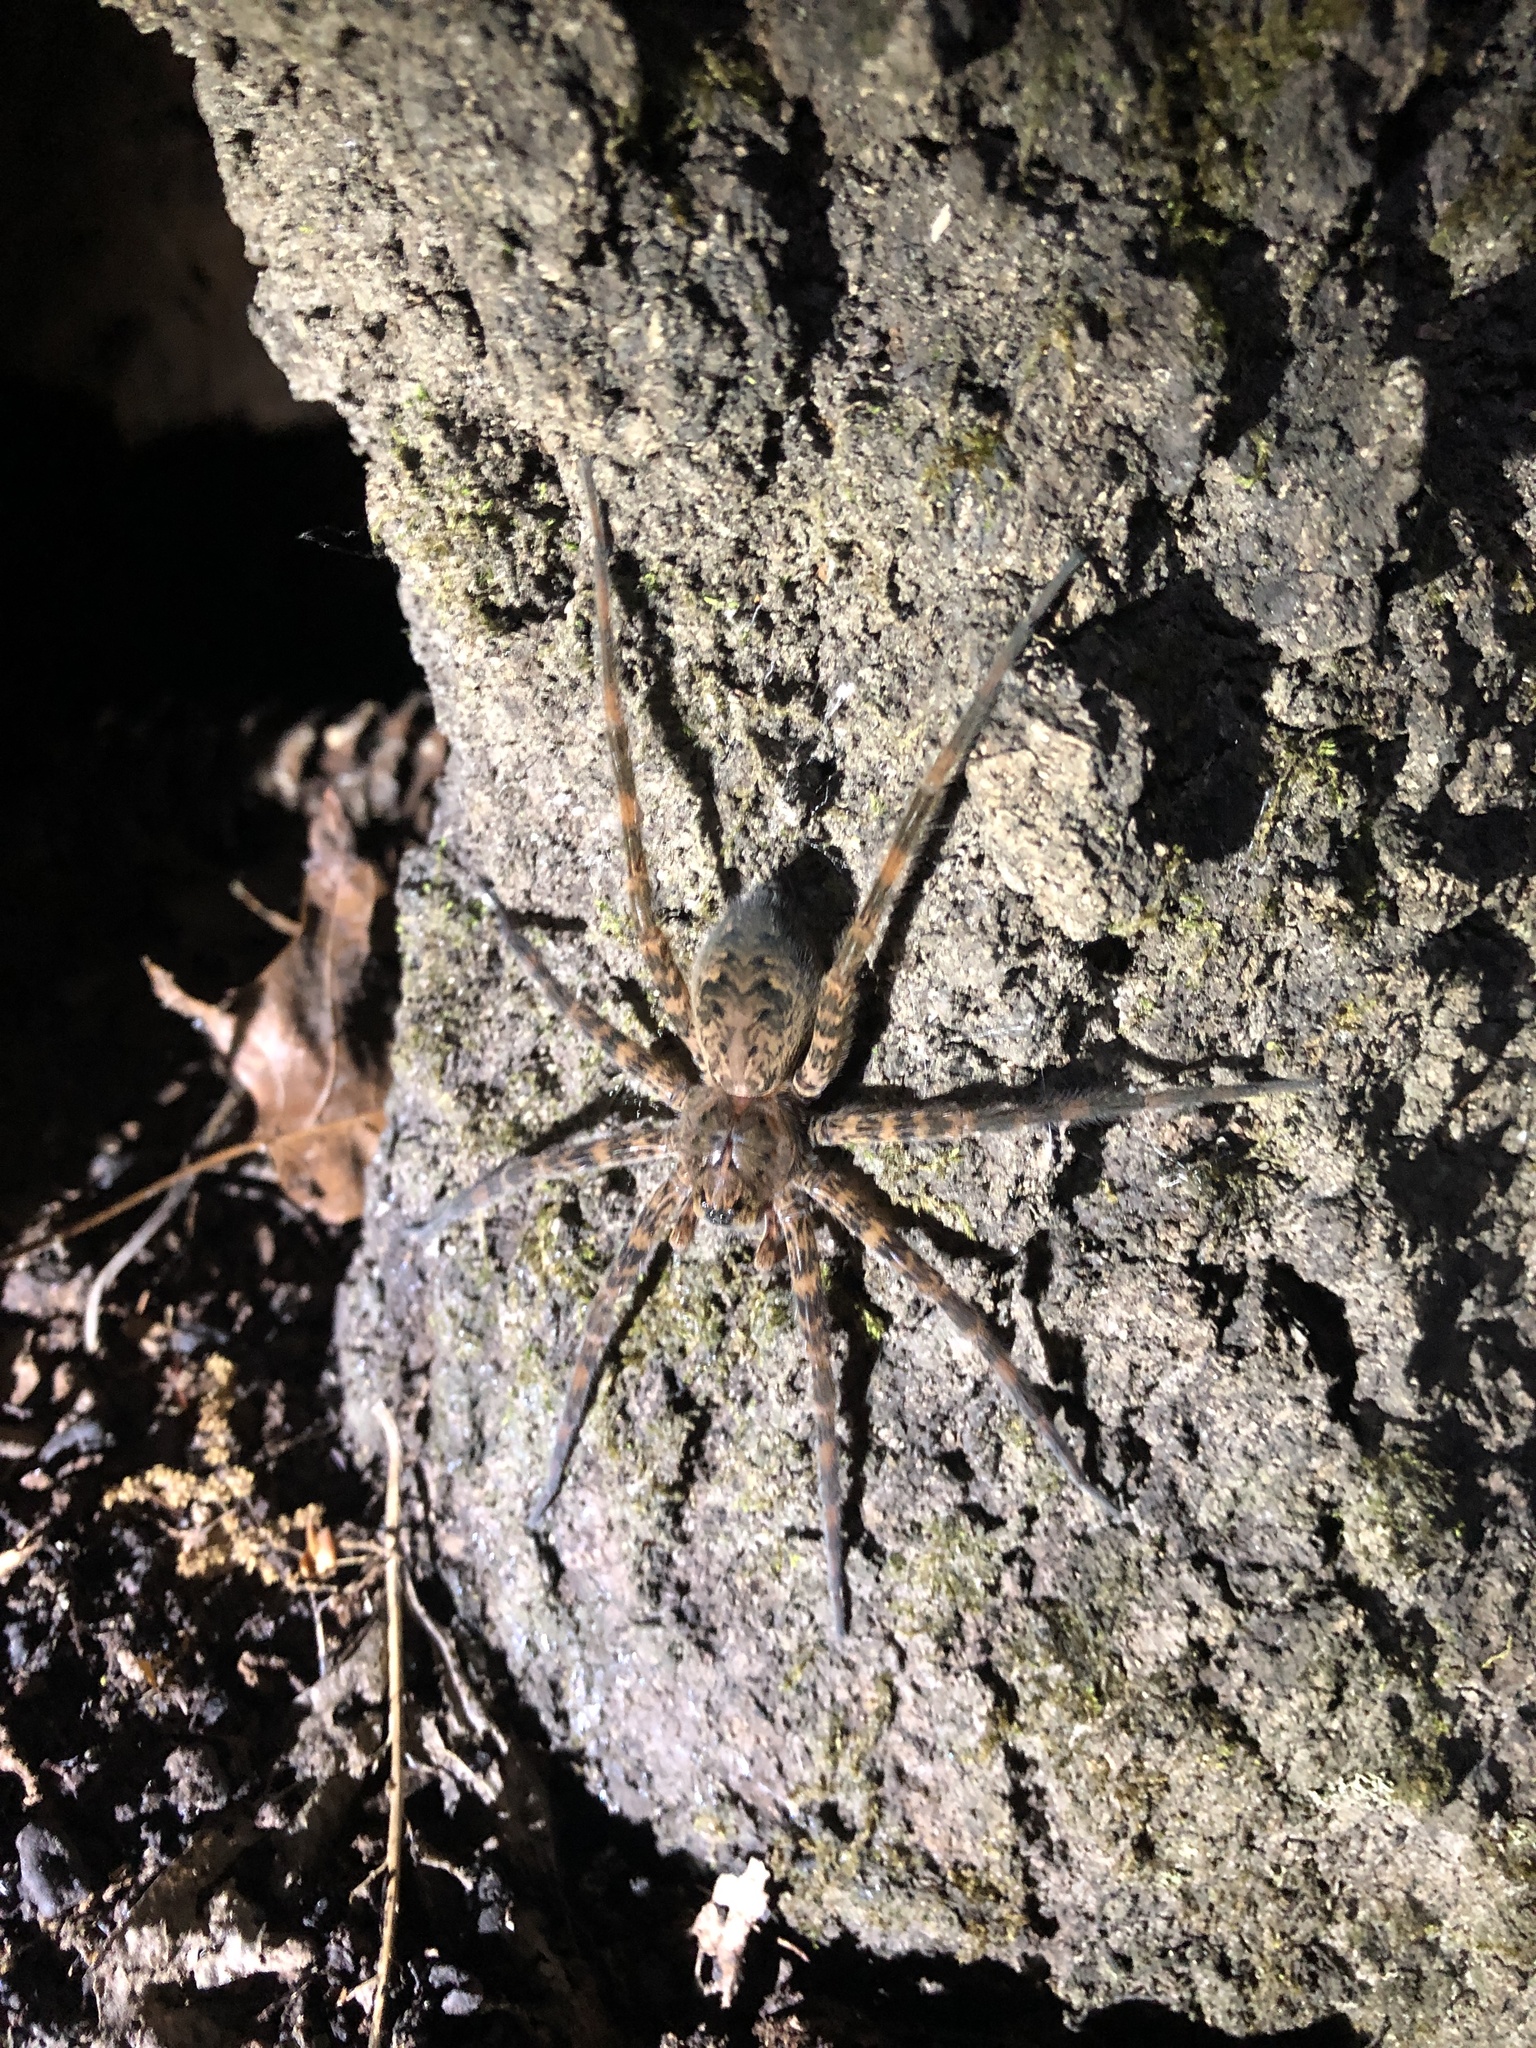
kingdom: Animalia
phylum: Arthropoda
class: Arachnida
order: Araneae
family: Pisauridae
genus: Dolomedes
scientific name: Dolomedes tenebrosus
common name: Dark fishing spider
